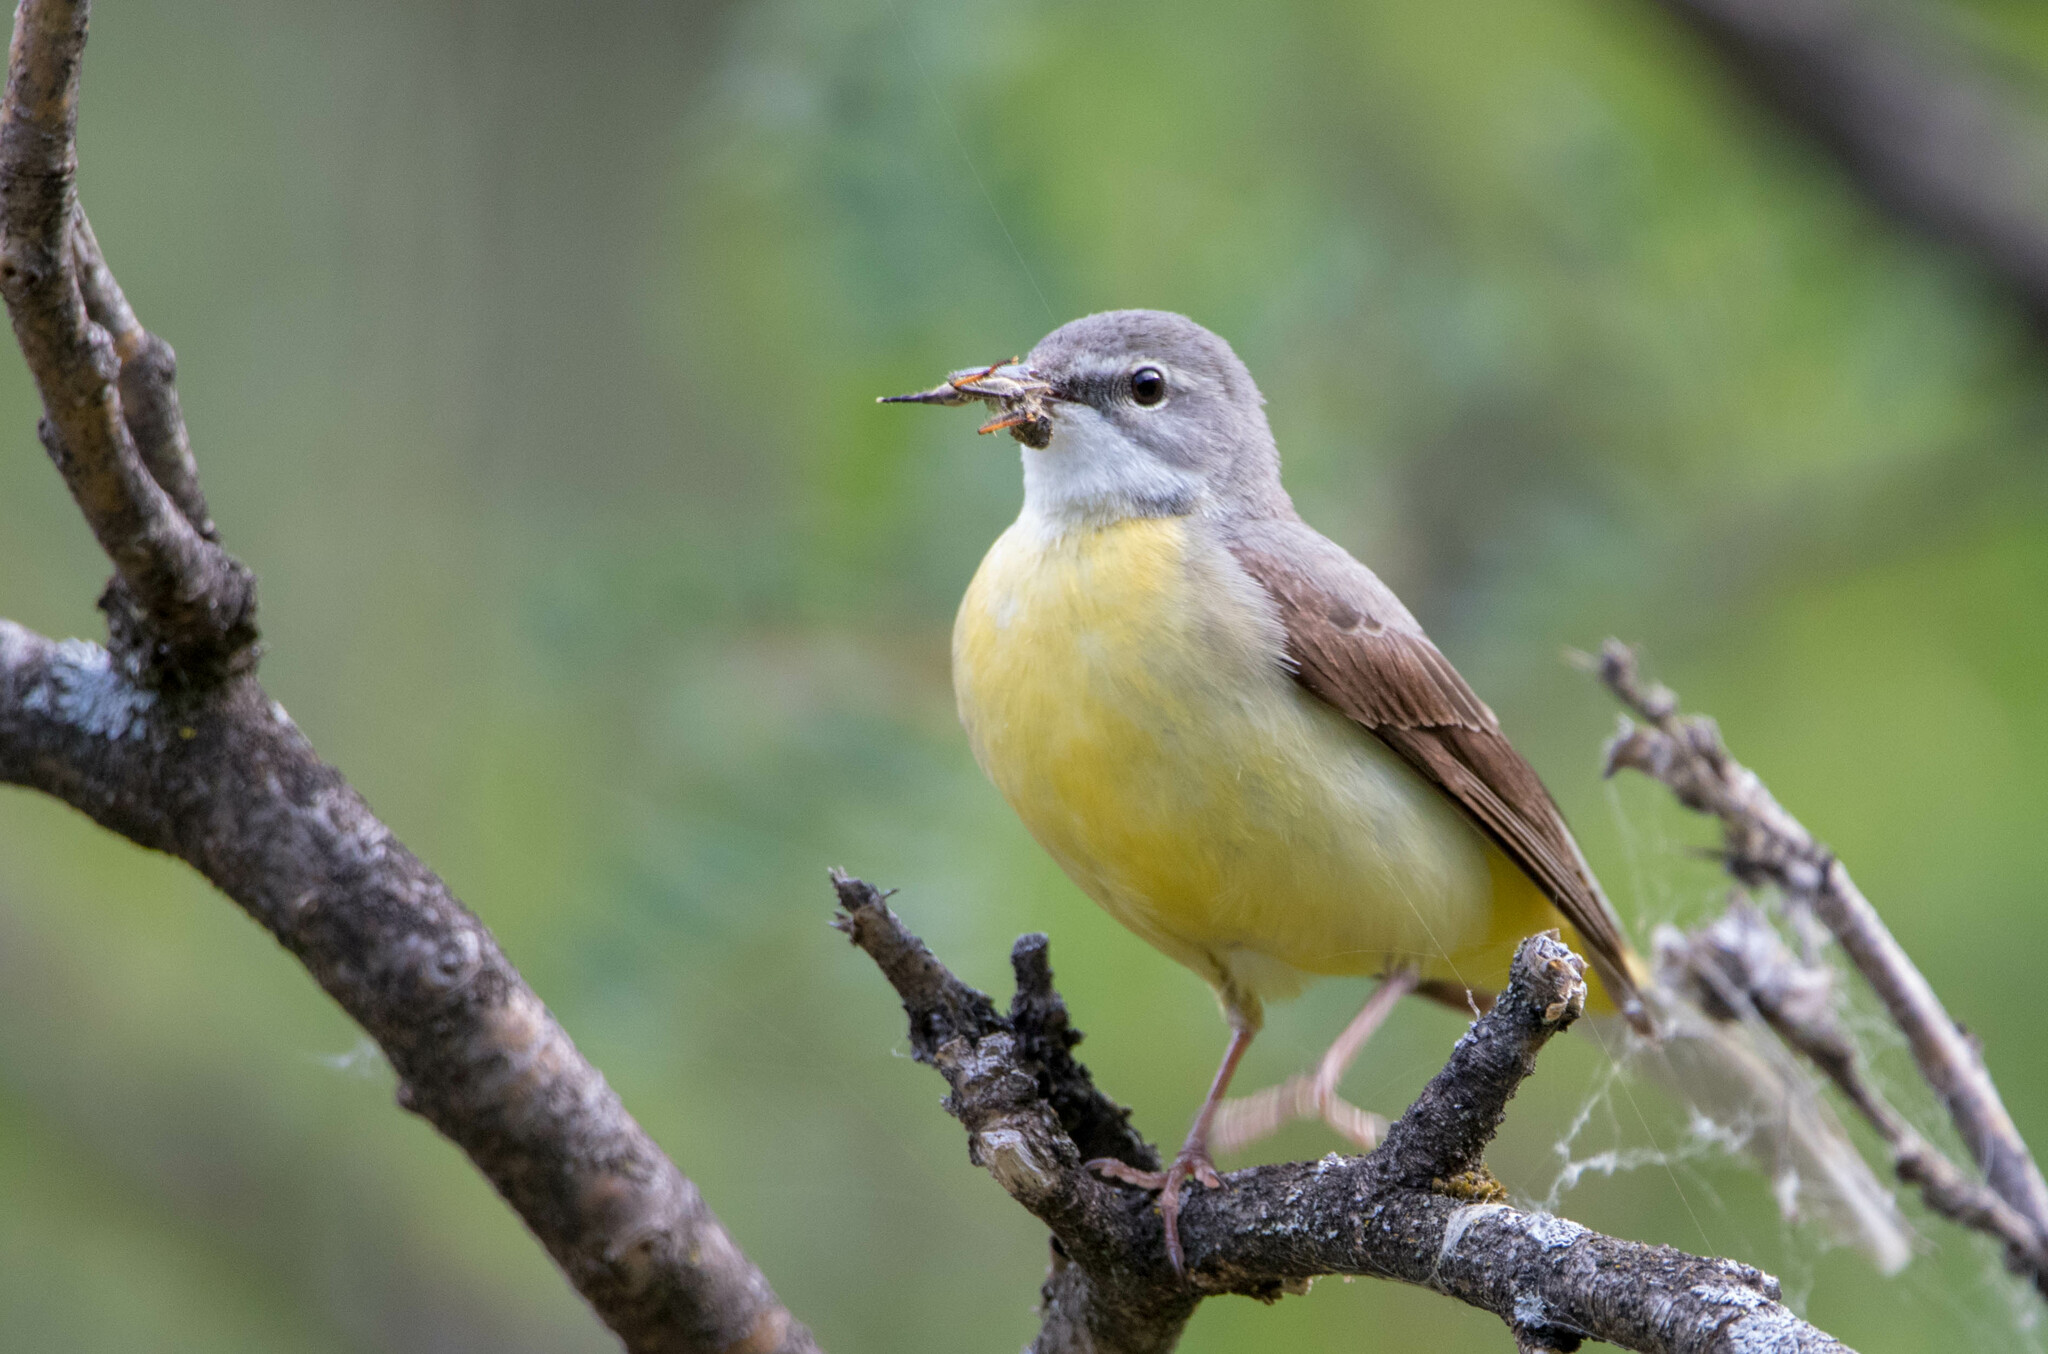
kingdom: Animalia
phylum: Chordata
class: Aves
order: Passeriformes
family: Motacillidae
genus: Motacilla
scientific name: Motacilla cinerea
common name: Grey wagtail
